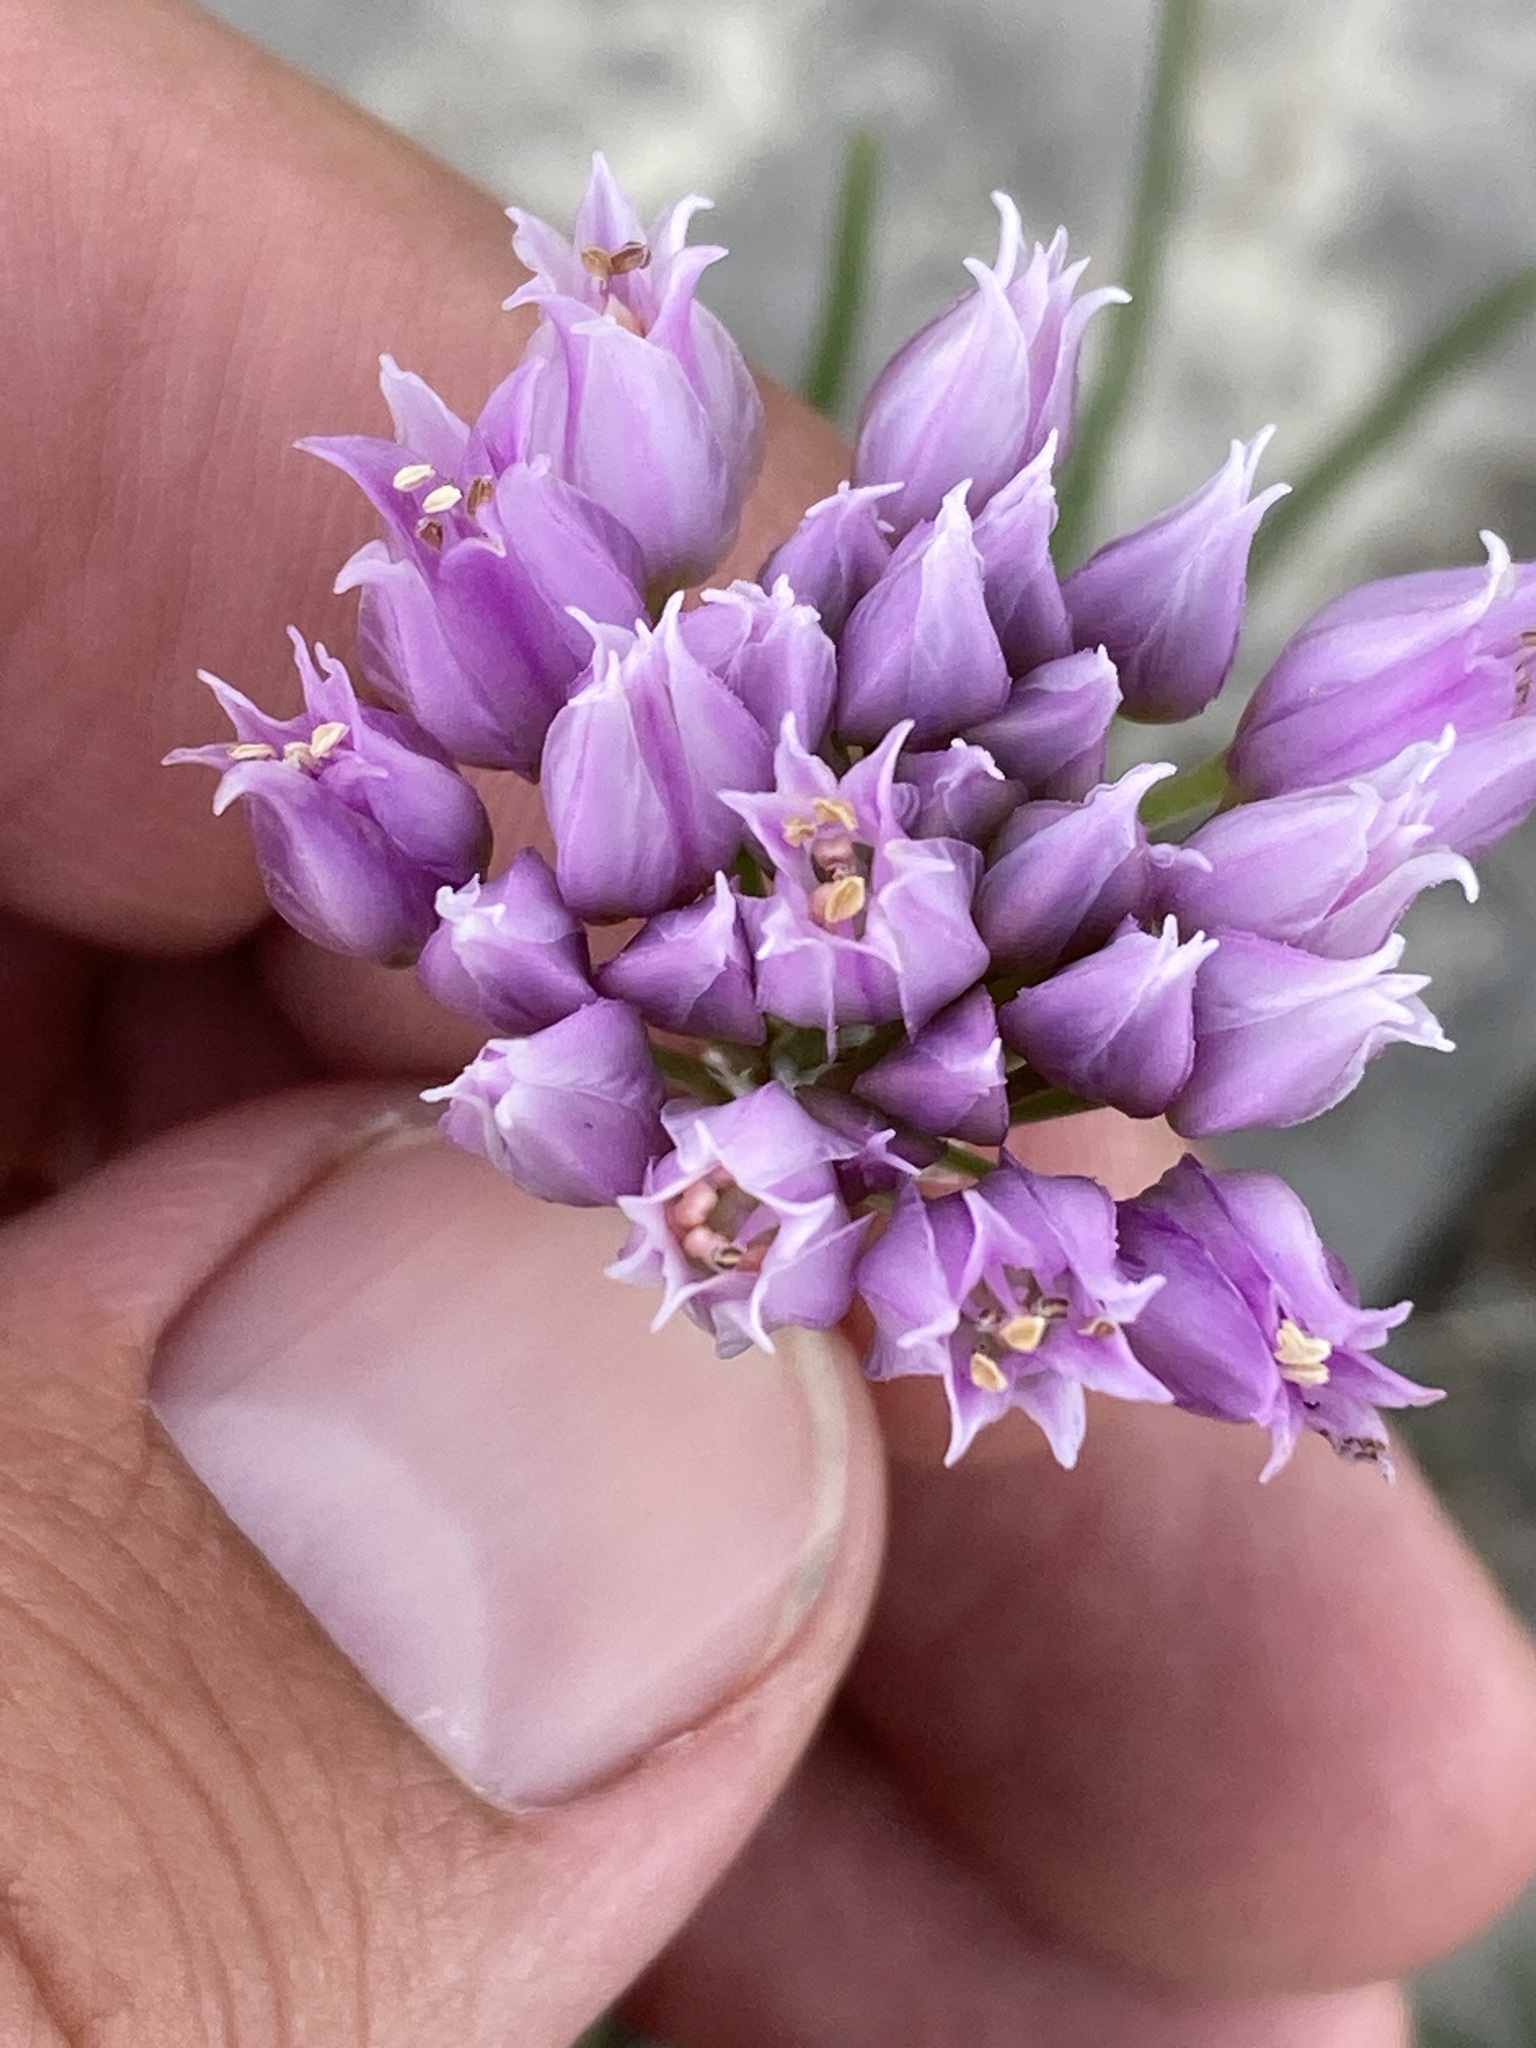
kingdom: Plantae
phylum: Tracheophyta
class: Liliopsida
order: Asparagales
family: Amaryllidaceae
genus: Allium
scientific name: Allium geyeri
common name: Geyer's onion
